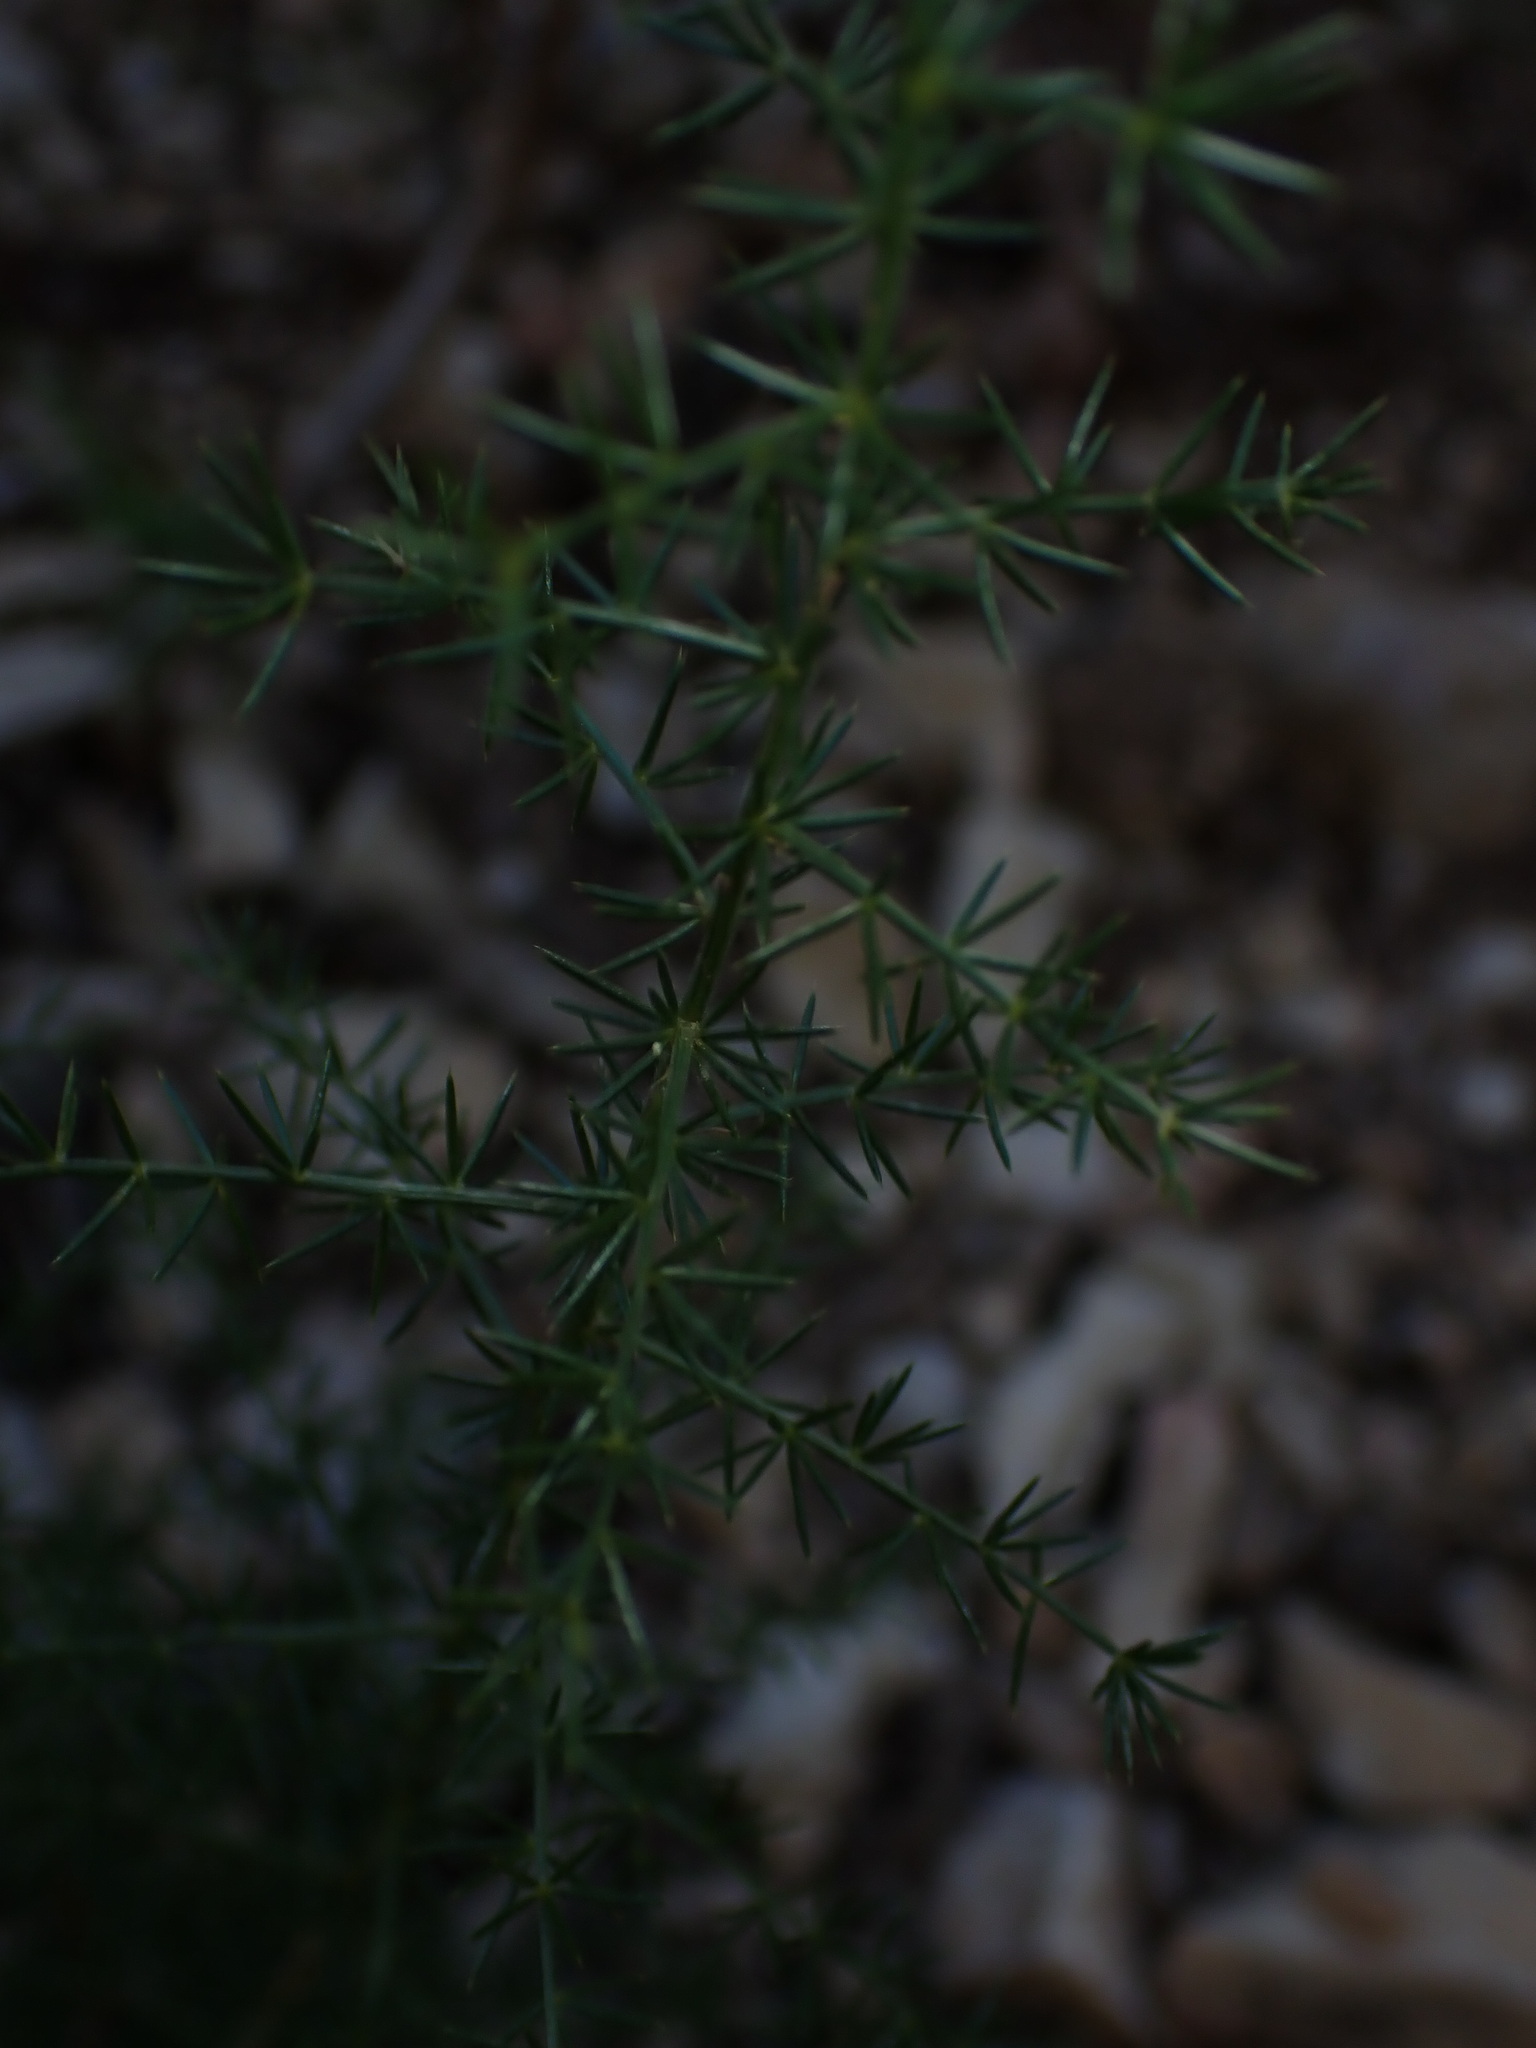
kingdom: Plantae
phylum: Tracheophyta
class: Liliopsida
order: Asparagales
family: Asparagaceae
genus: Asparagus
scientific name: Asparagus acutifolius
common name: Wild asparagus
